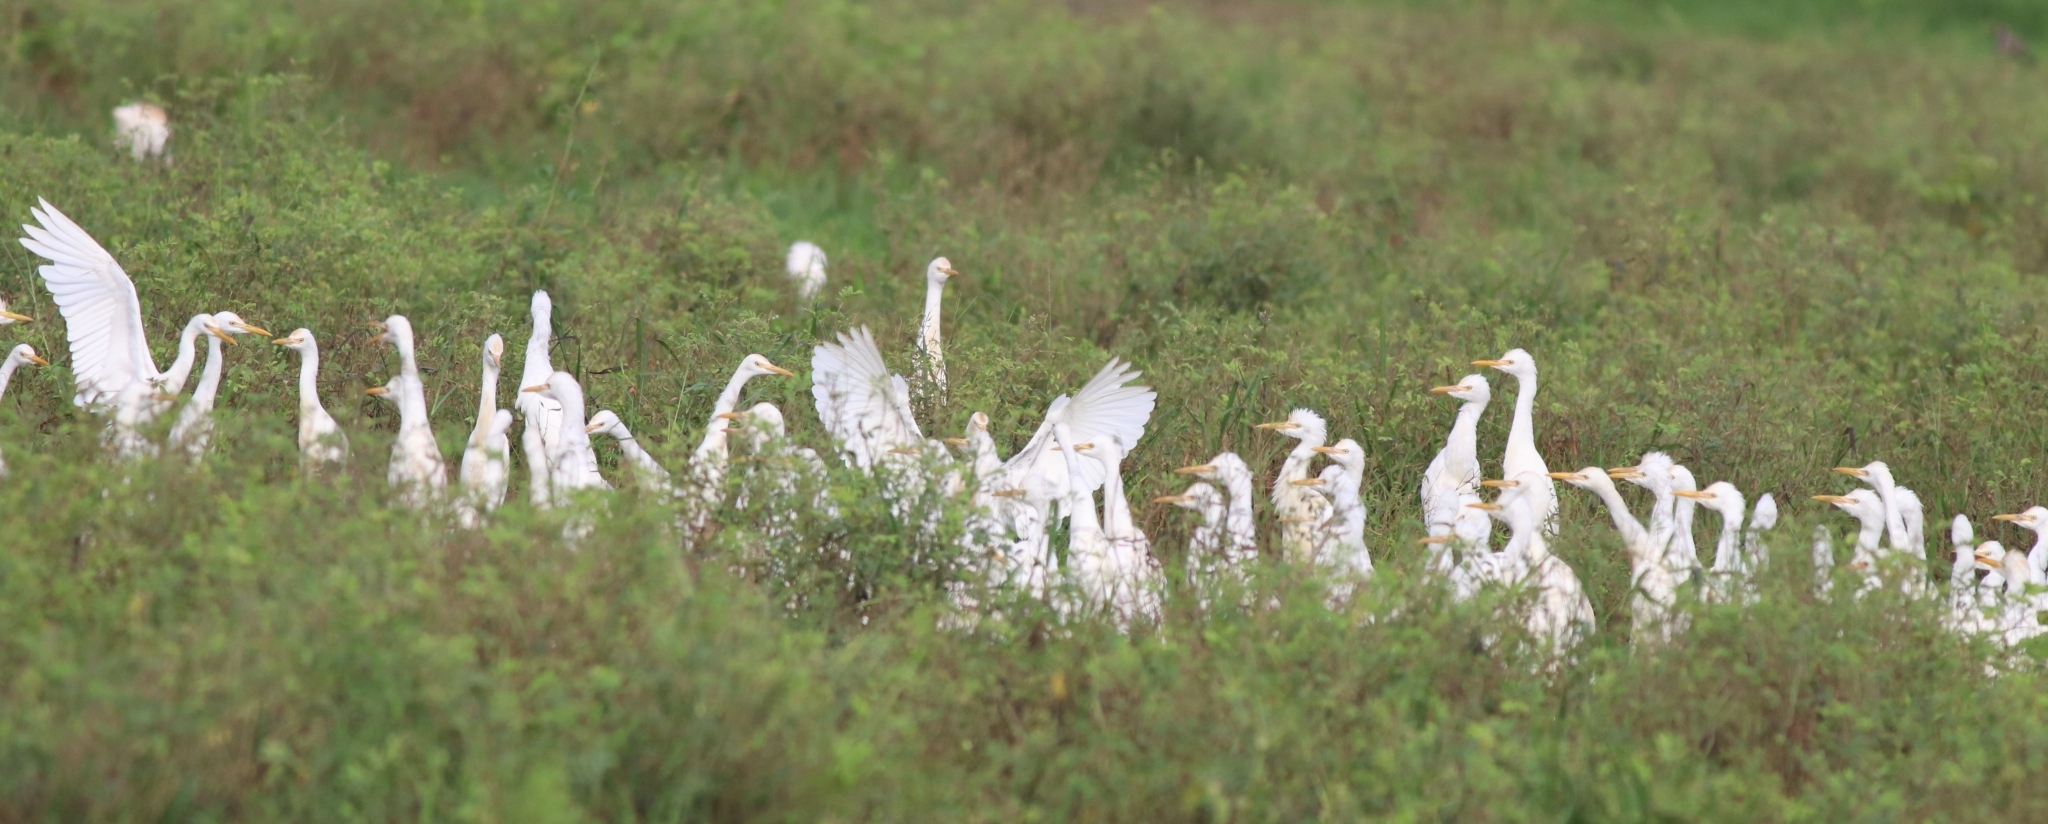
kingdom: Animalia
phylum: Chordata
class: Aves
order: Pelecaniformes
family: Ardeidae
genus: Bubulcus
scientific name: Bubulcus coromandus
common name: Eastern cattle egret
